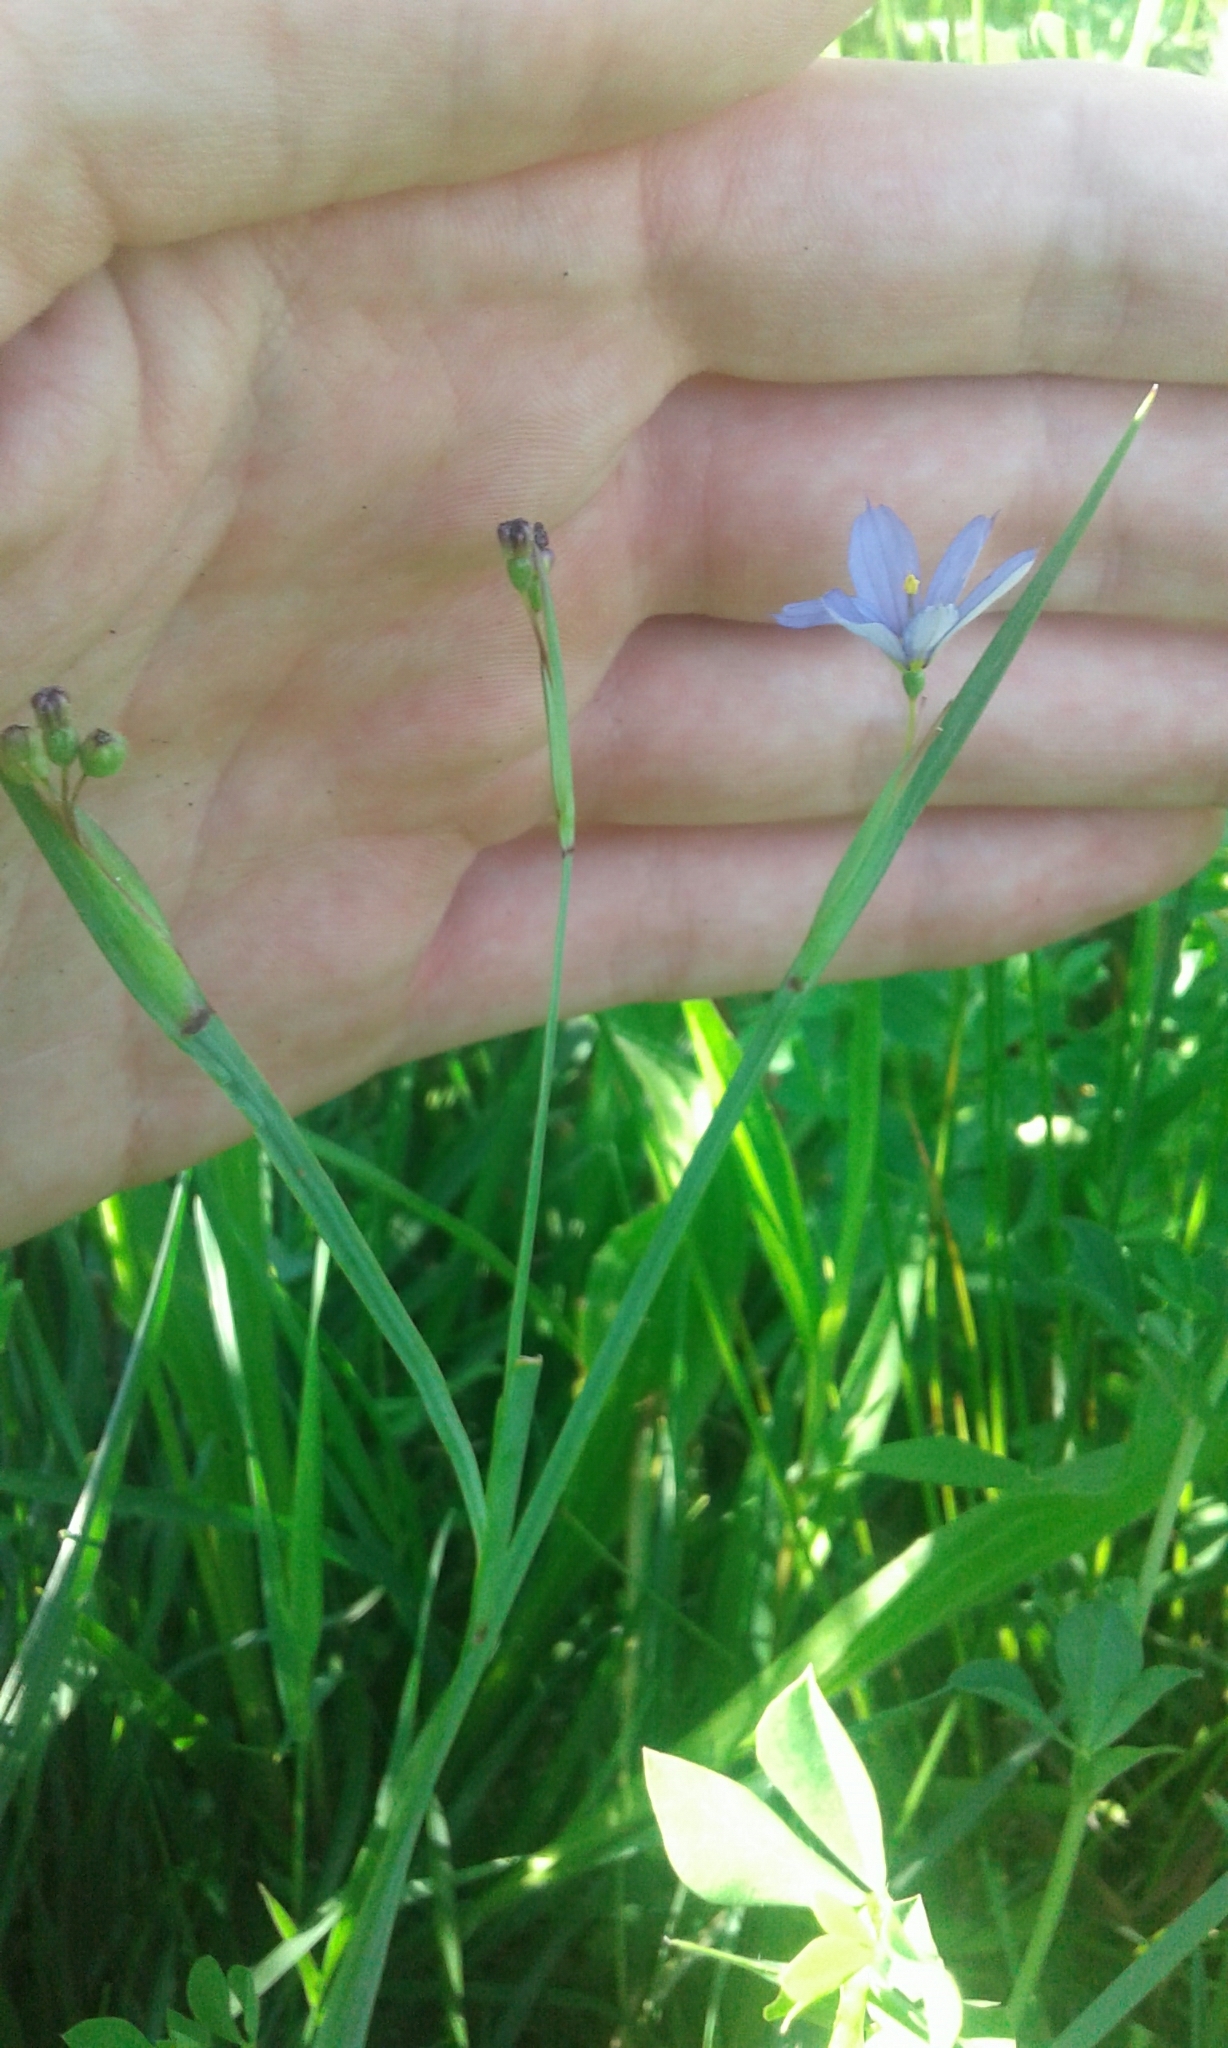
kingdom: Plantae
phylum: Tracheophyta
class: Liliopsida
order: Asparagales
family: Iridaceae
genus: Sisyrinchium
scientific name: Sisyrinchium angustifolium
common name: Narrow-leaf blue-eyed-grass
